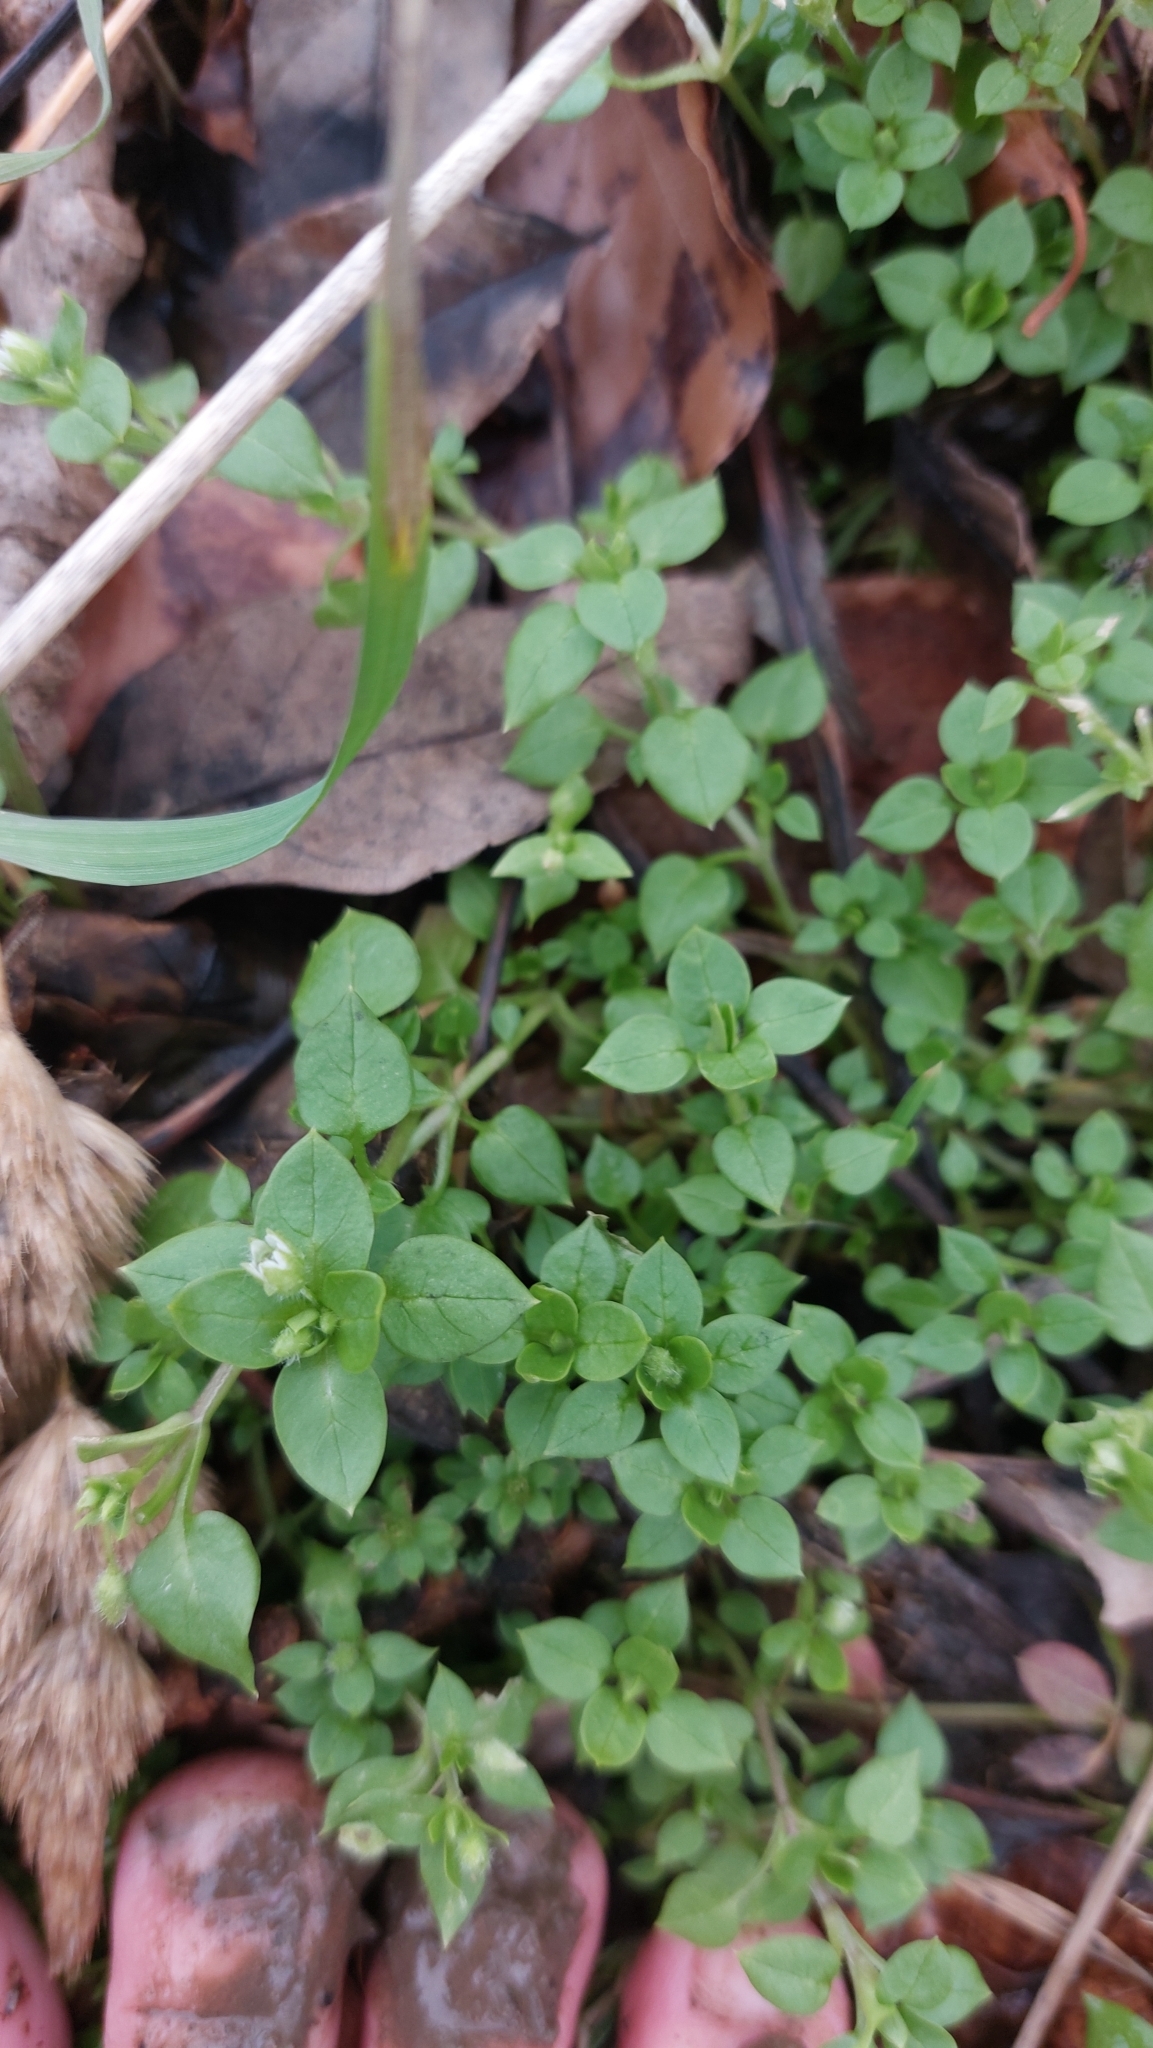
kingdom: Plantae
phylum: Tracheophyta
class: Magnoliopsida
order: Caryophyllales
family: Caryophyllaceae
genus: Stellaria
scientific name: Stellaria media
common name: Common chickweed
